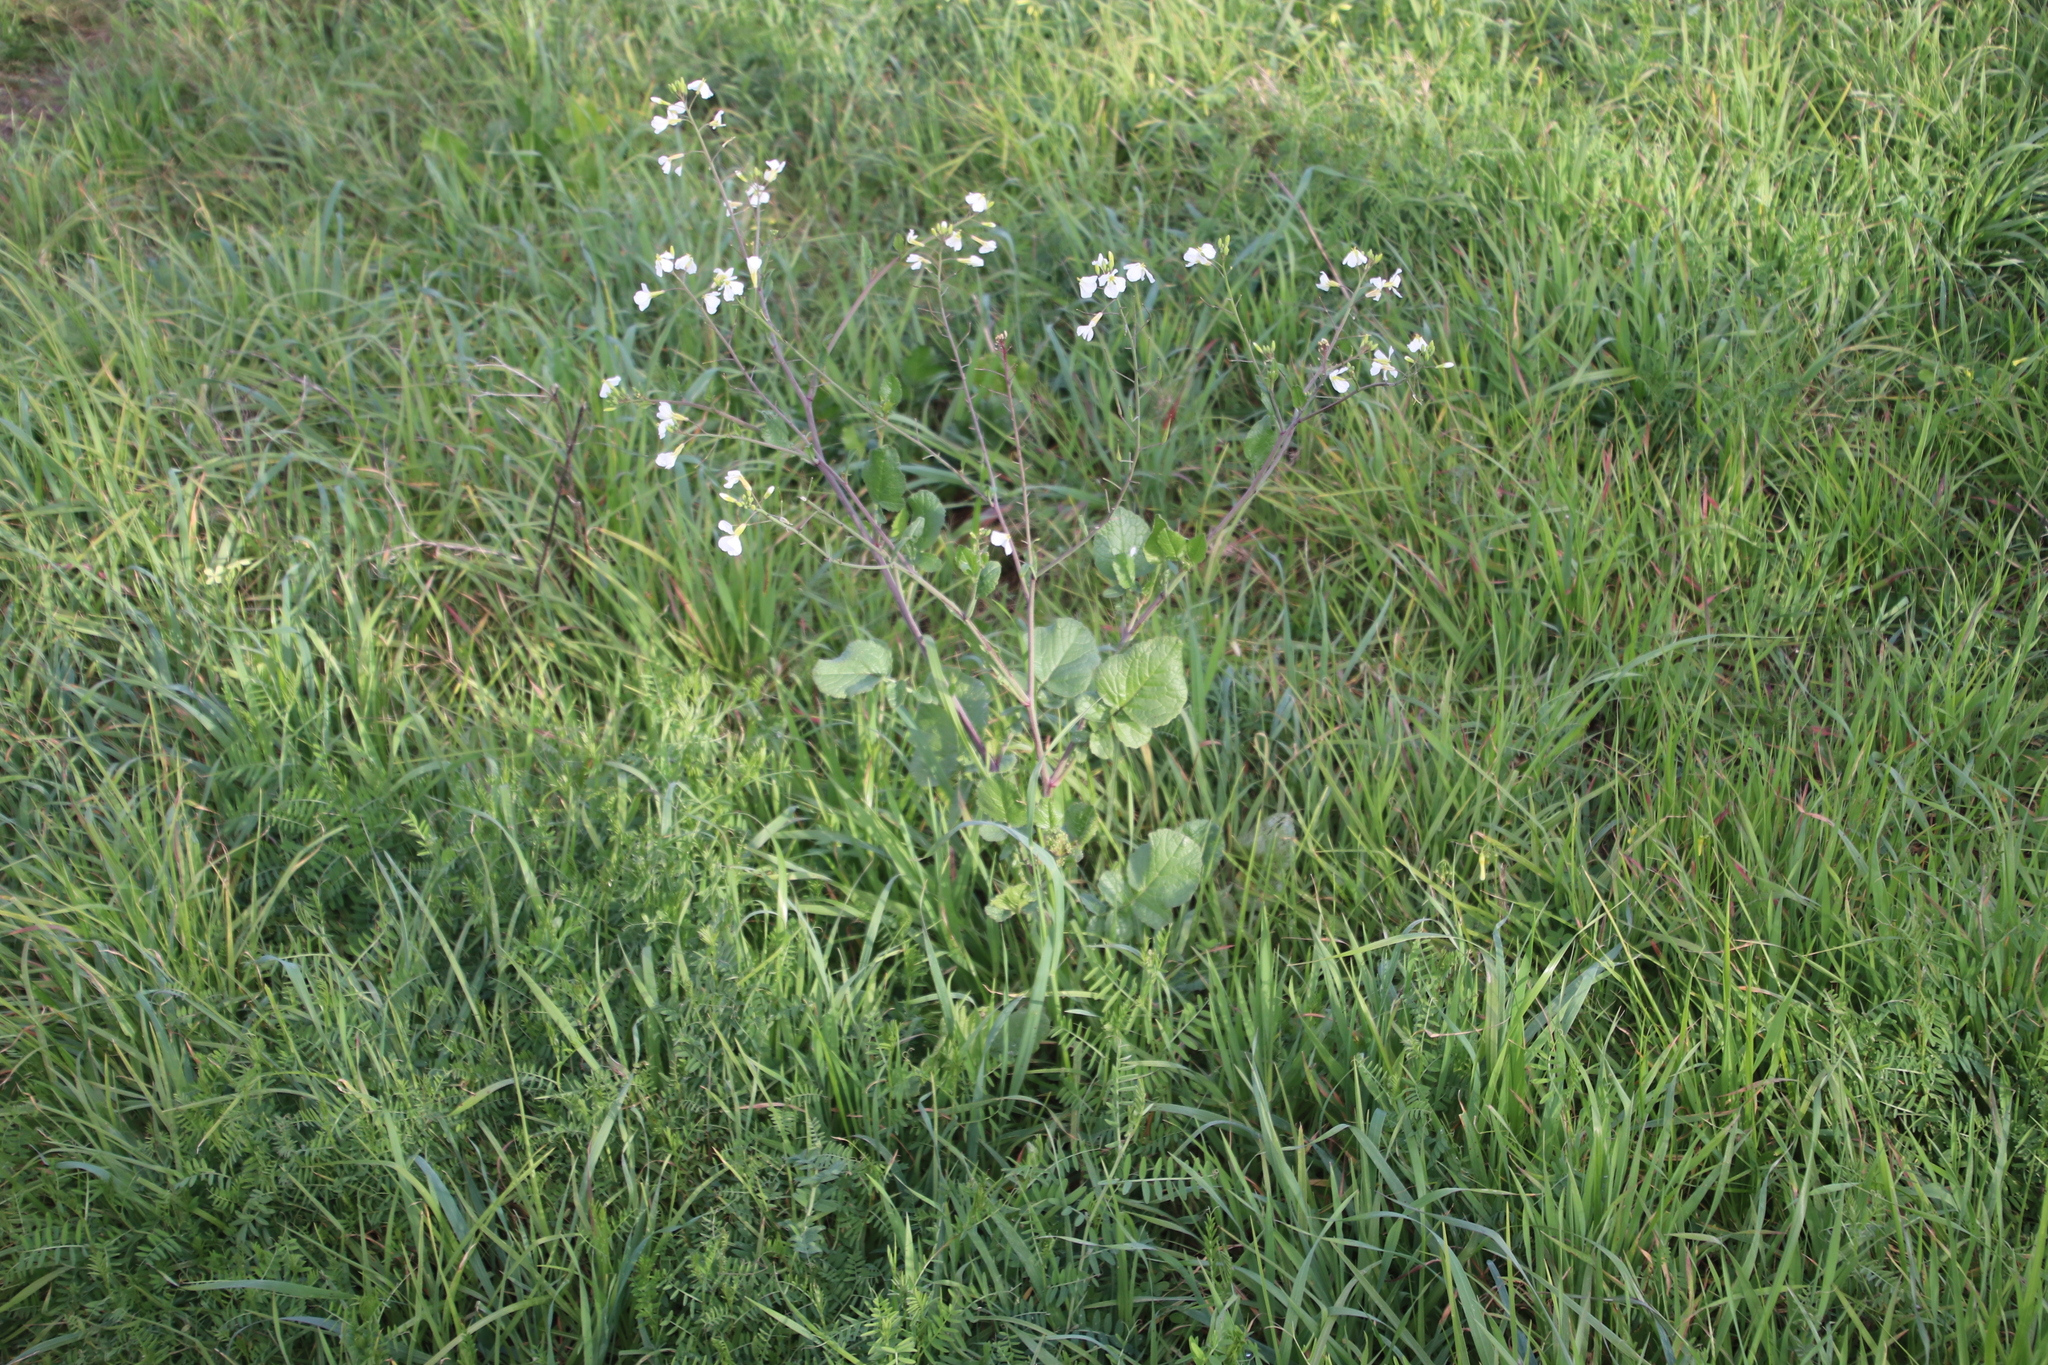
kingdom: Plantae
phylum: Tracheophyta
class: Magnoliopsida
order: Brassicales
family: Brassicaceae
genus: Raphanus
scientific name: Raphanus raphanistrum
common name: Wild radish
